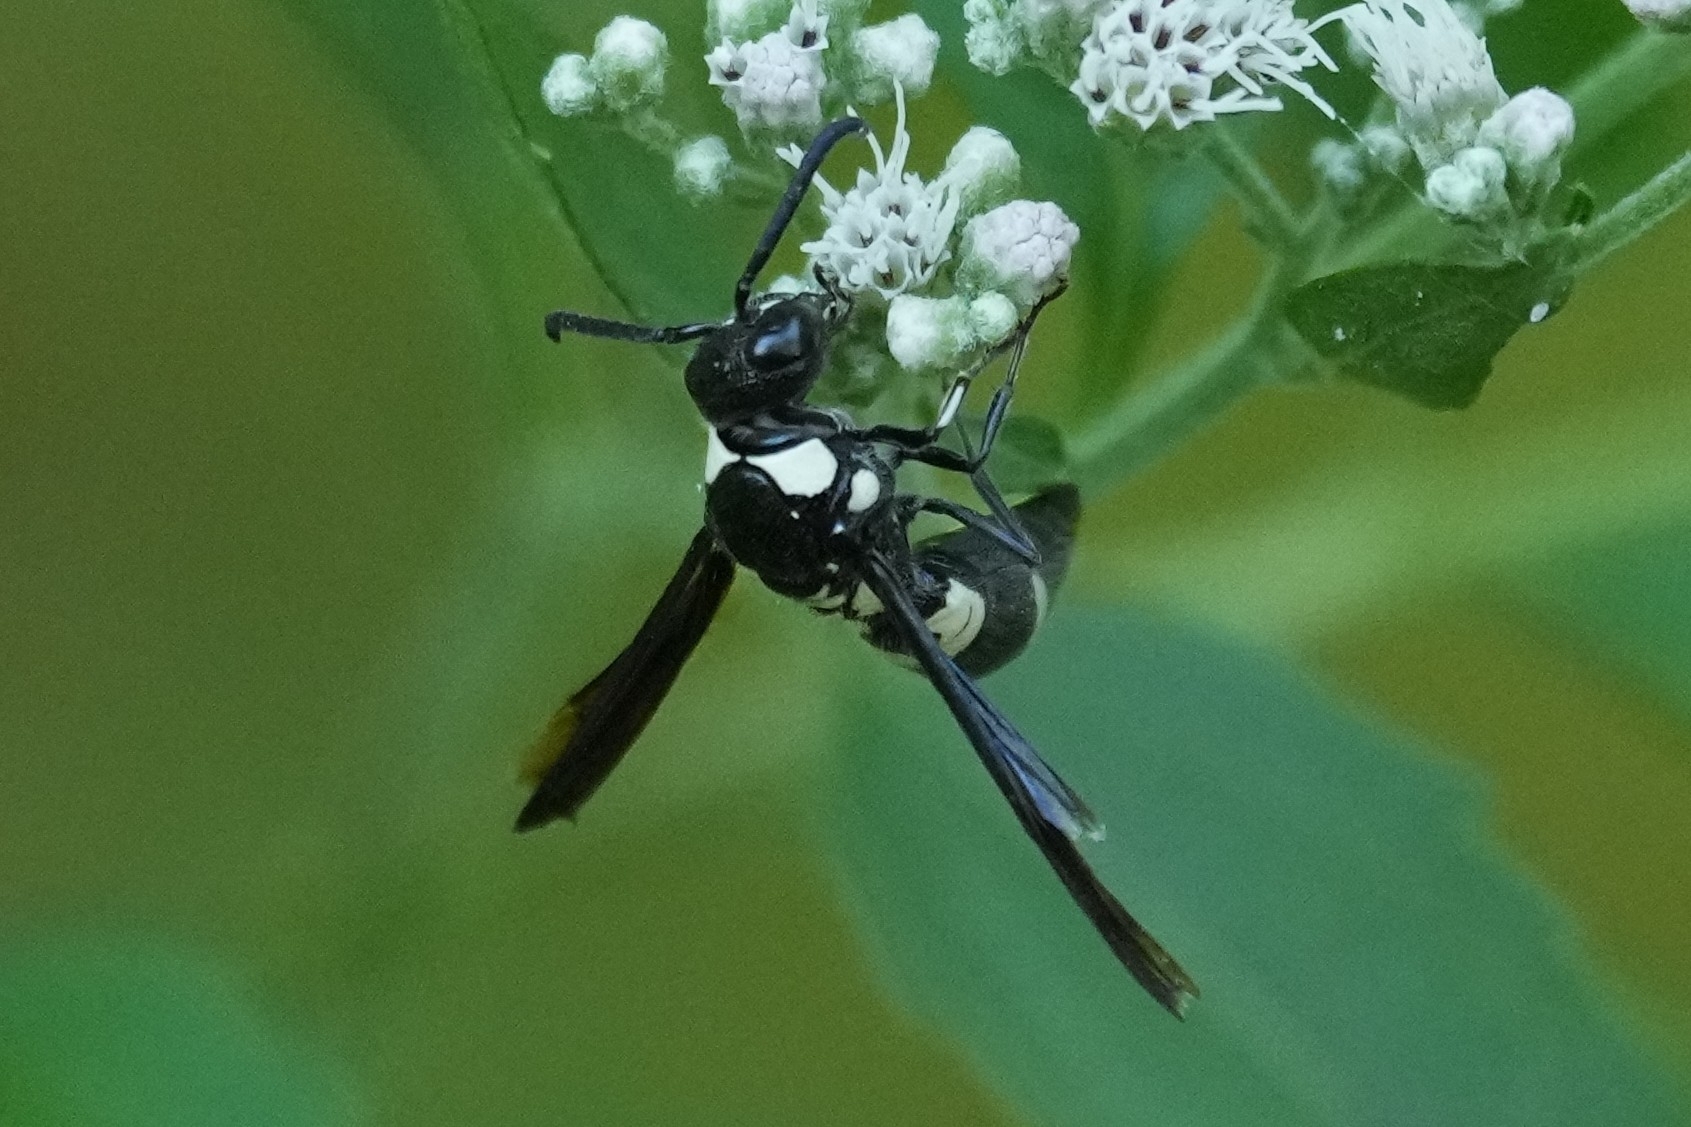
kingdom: Animalia
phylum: Arthropoda
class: Insecta
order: Hymenoptera
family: Eumenidae
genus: Pseudodynerus
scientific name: Pseudodynerus quadrisectus
